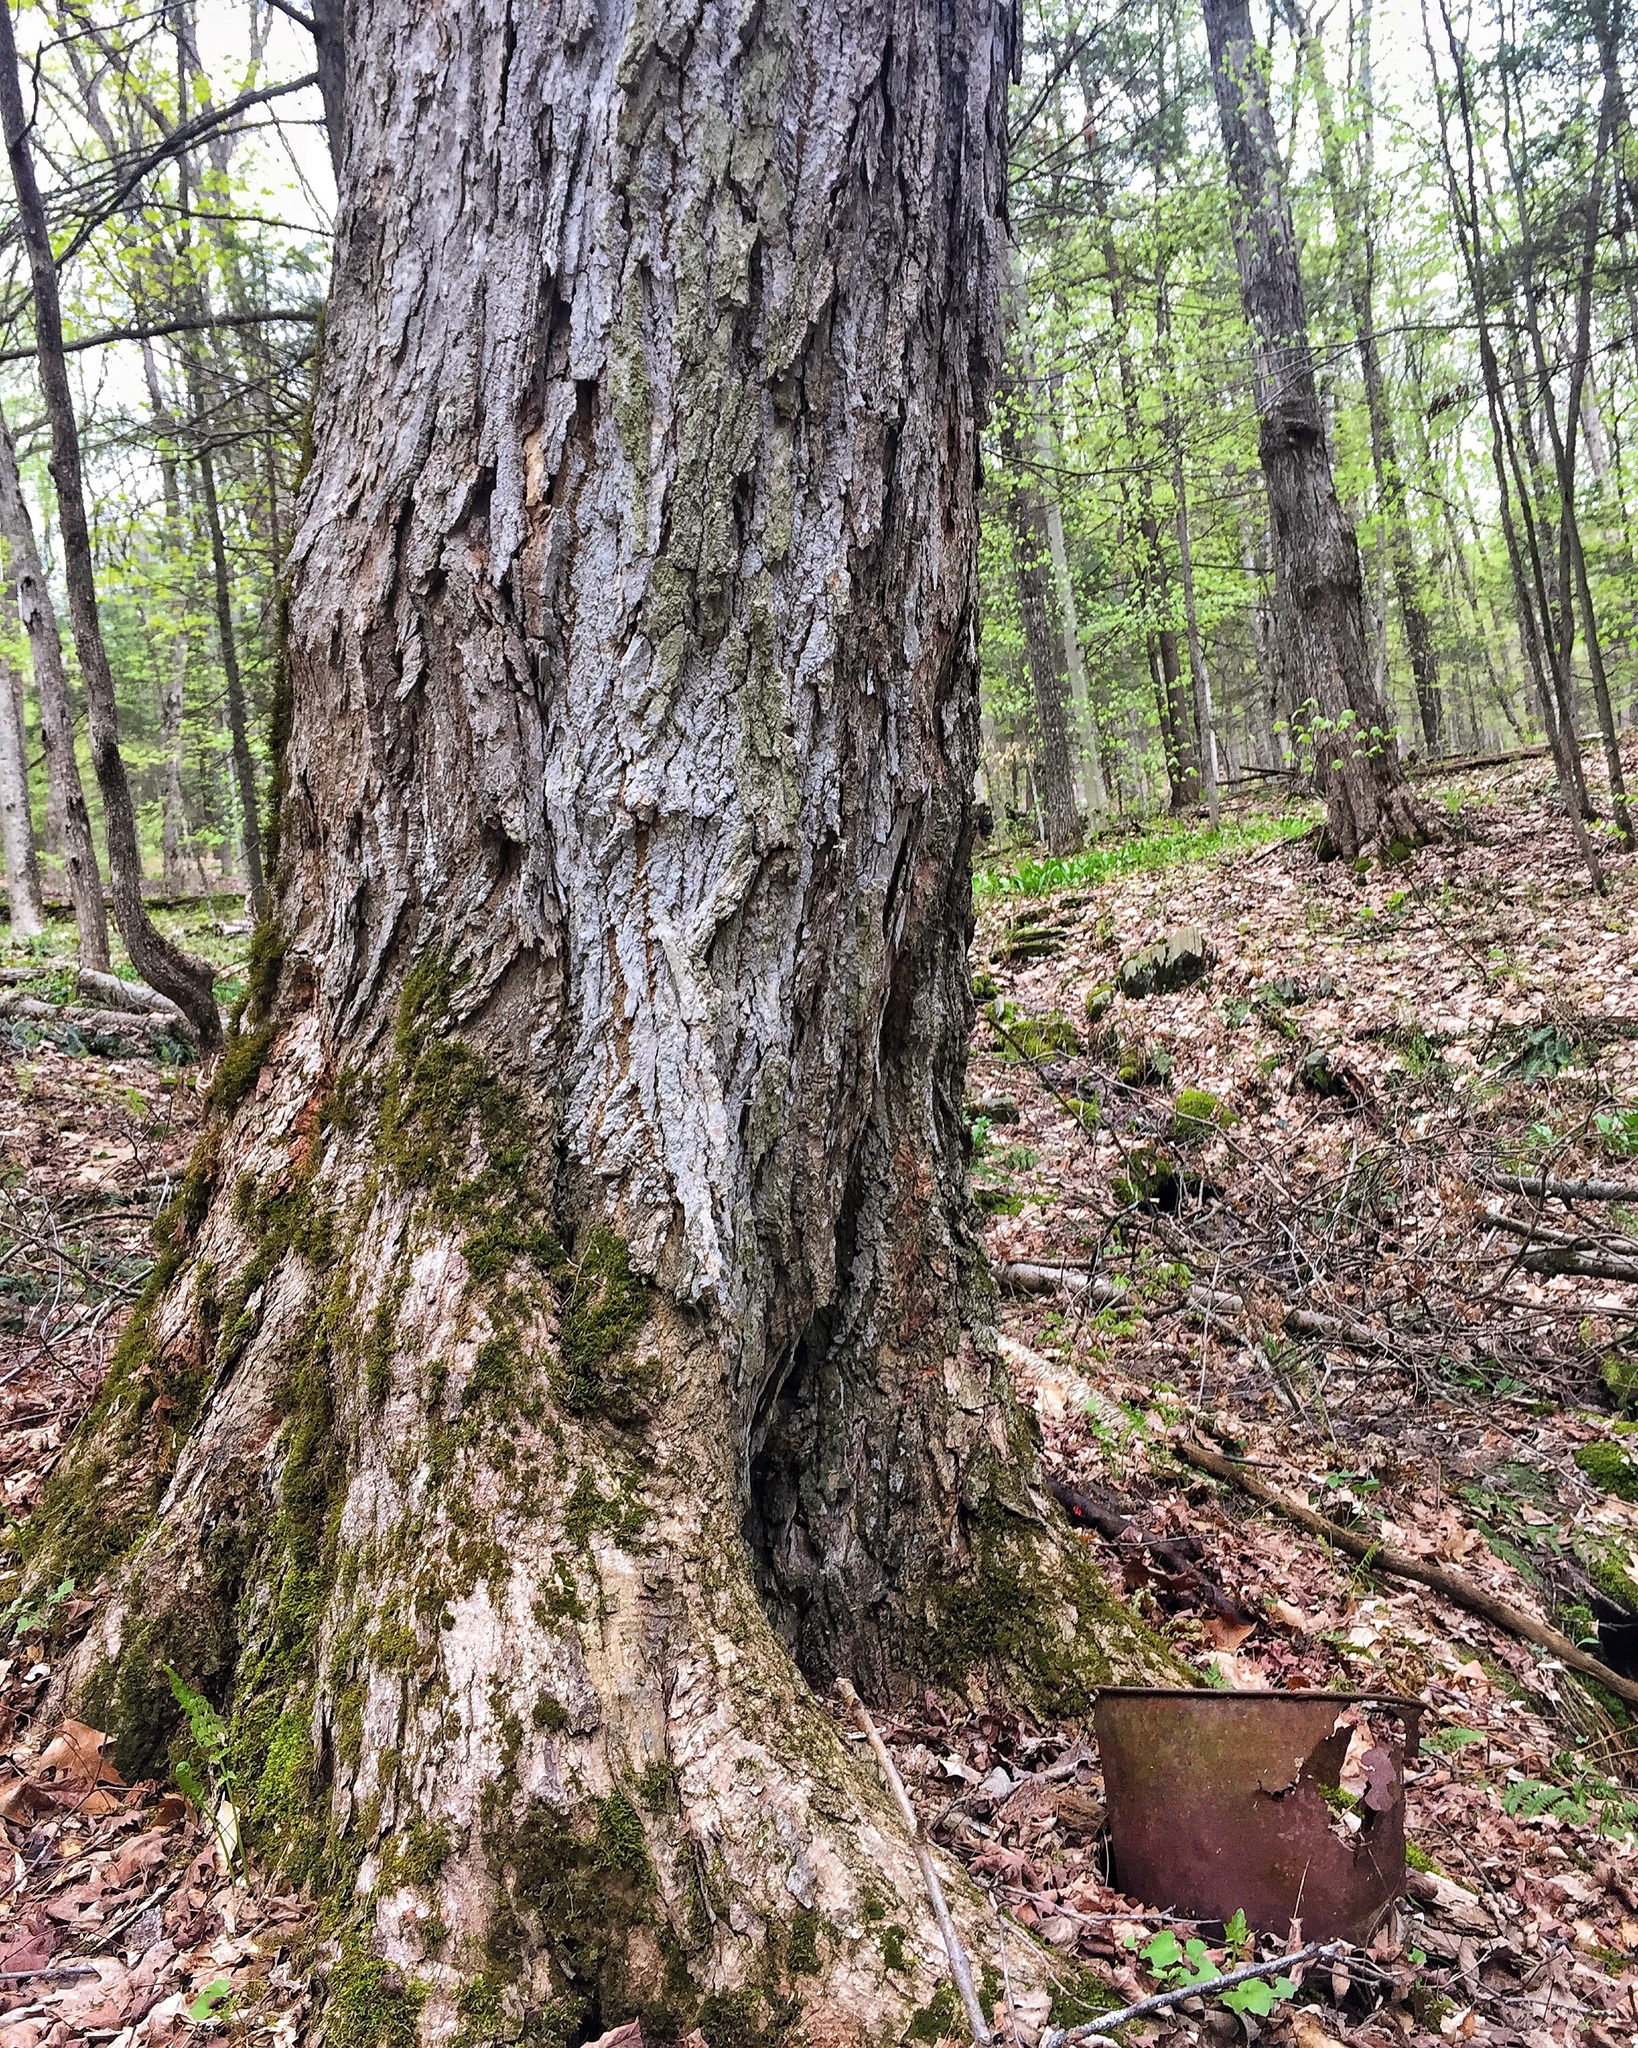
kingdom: Plantae
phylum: Tracheophyta
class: Magnoliopsida
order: Sapindales
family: Sapindaceae
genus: Acer
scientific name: Acer saccharum
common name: Sugar maple
